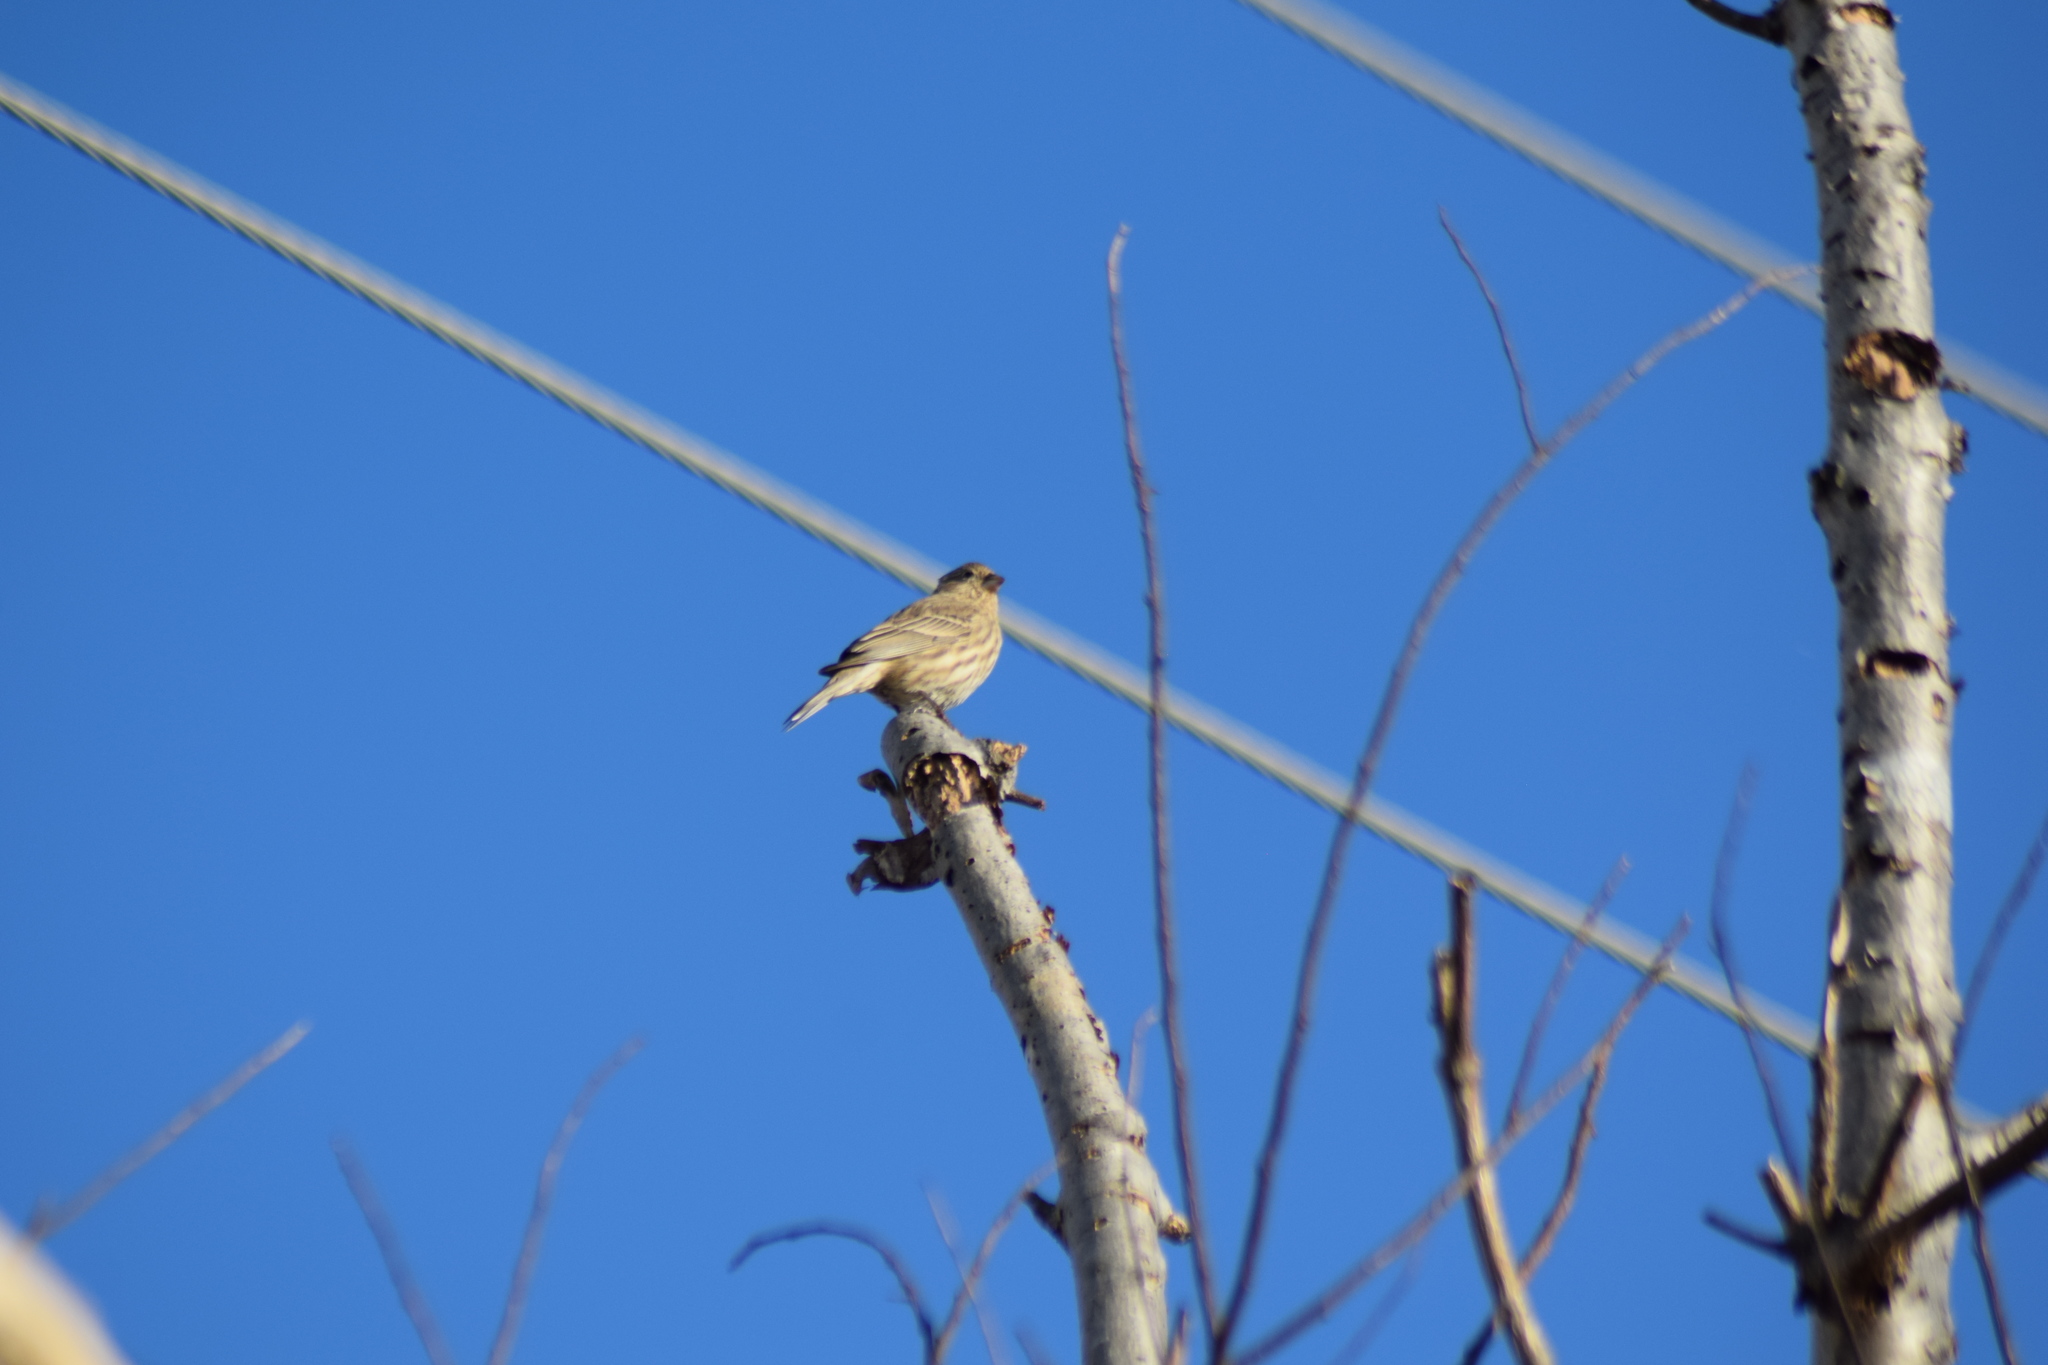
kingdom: Animalia
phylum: Chordata
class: Aves
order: Passeriformes
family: Fringillidae
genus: Haemorhous
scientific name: Haemorhous mexicanus
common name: House finch
